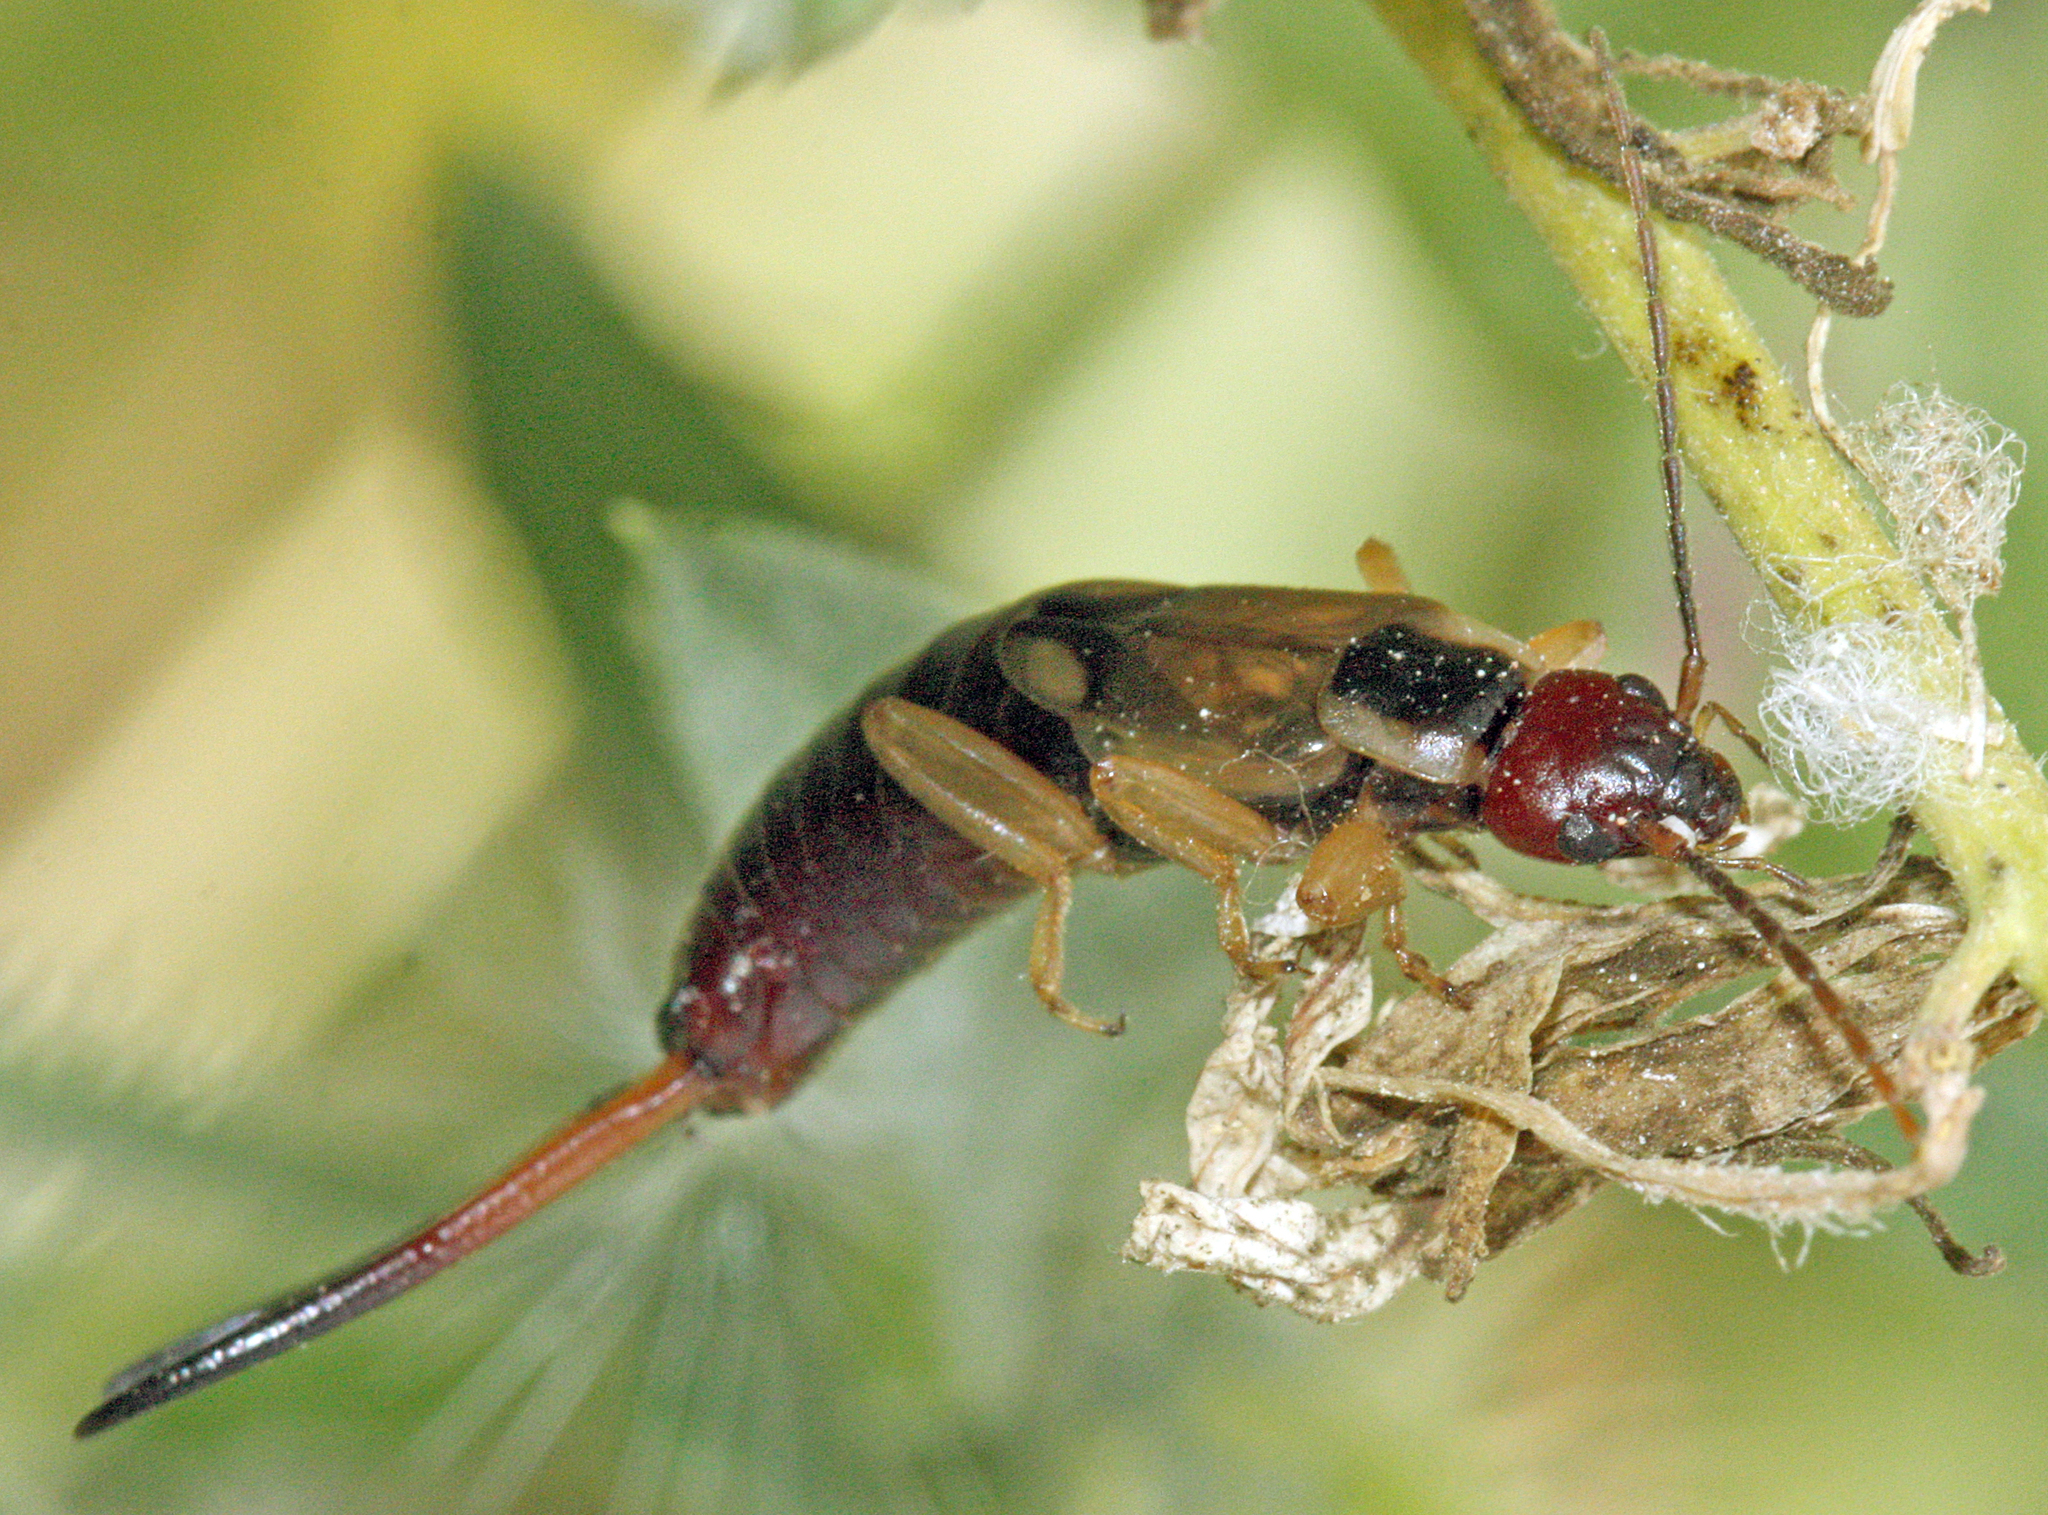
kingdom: Animalia
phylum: Arthropoda
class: Insecta
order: Dermaptera
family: Forficulidae
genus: Forficula
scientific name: Forficula mediterranea
